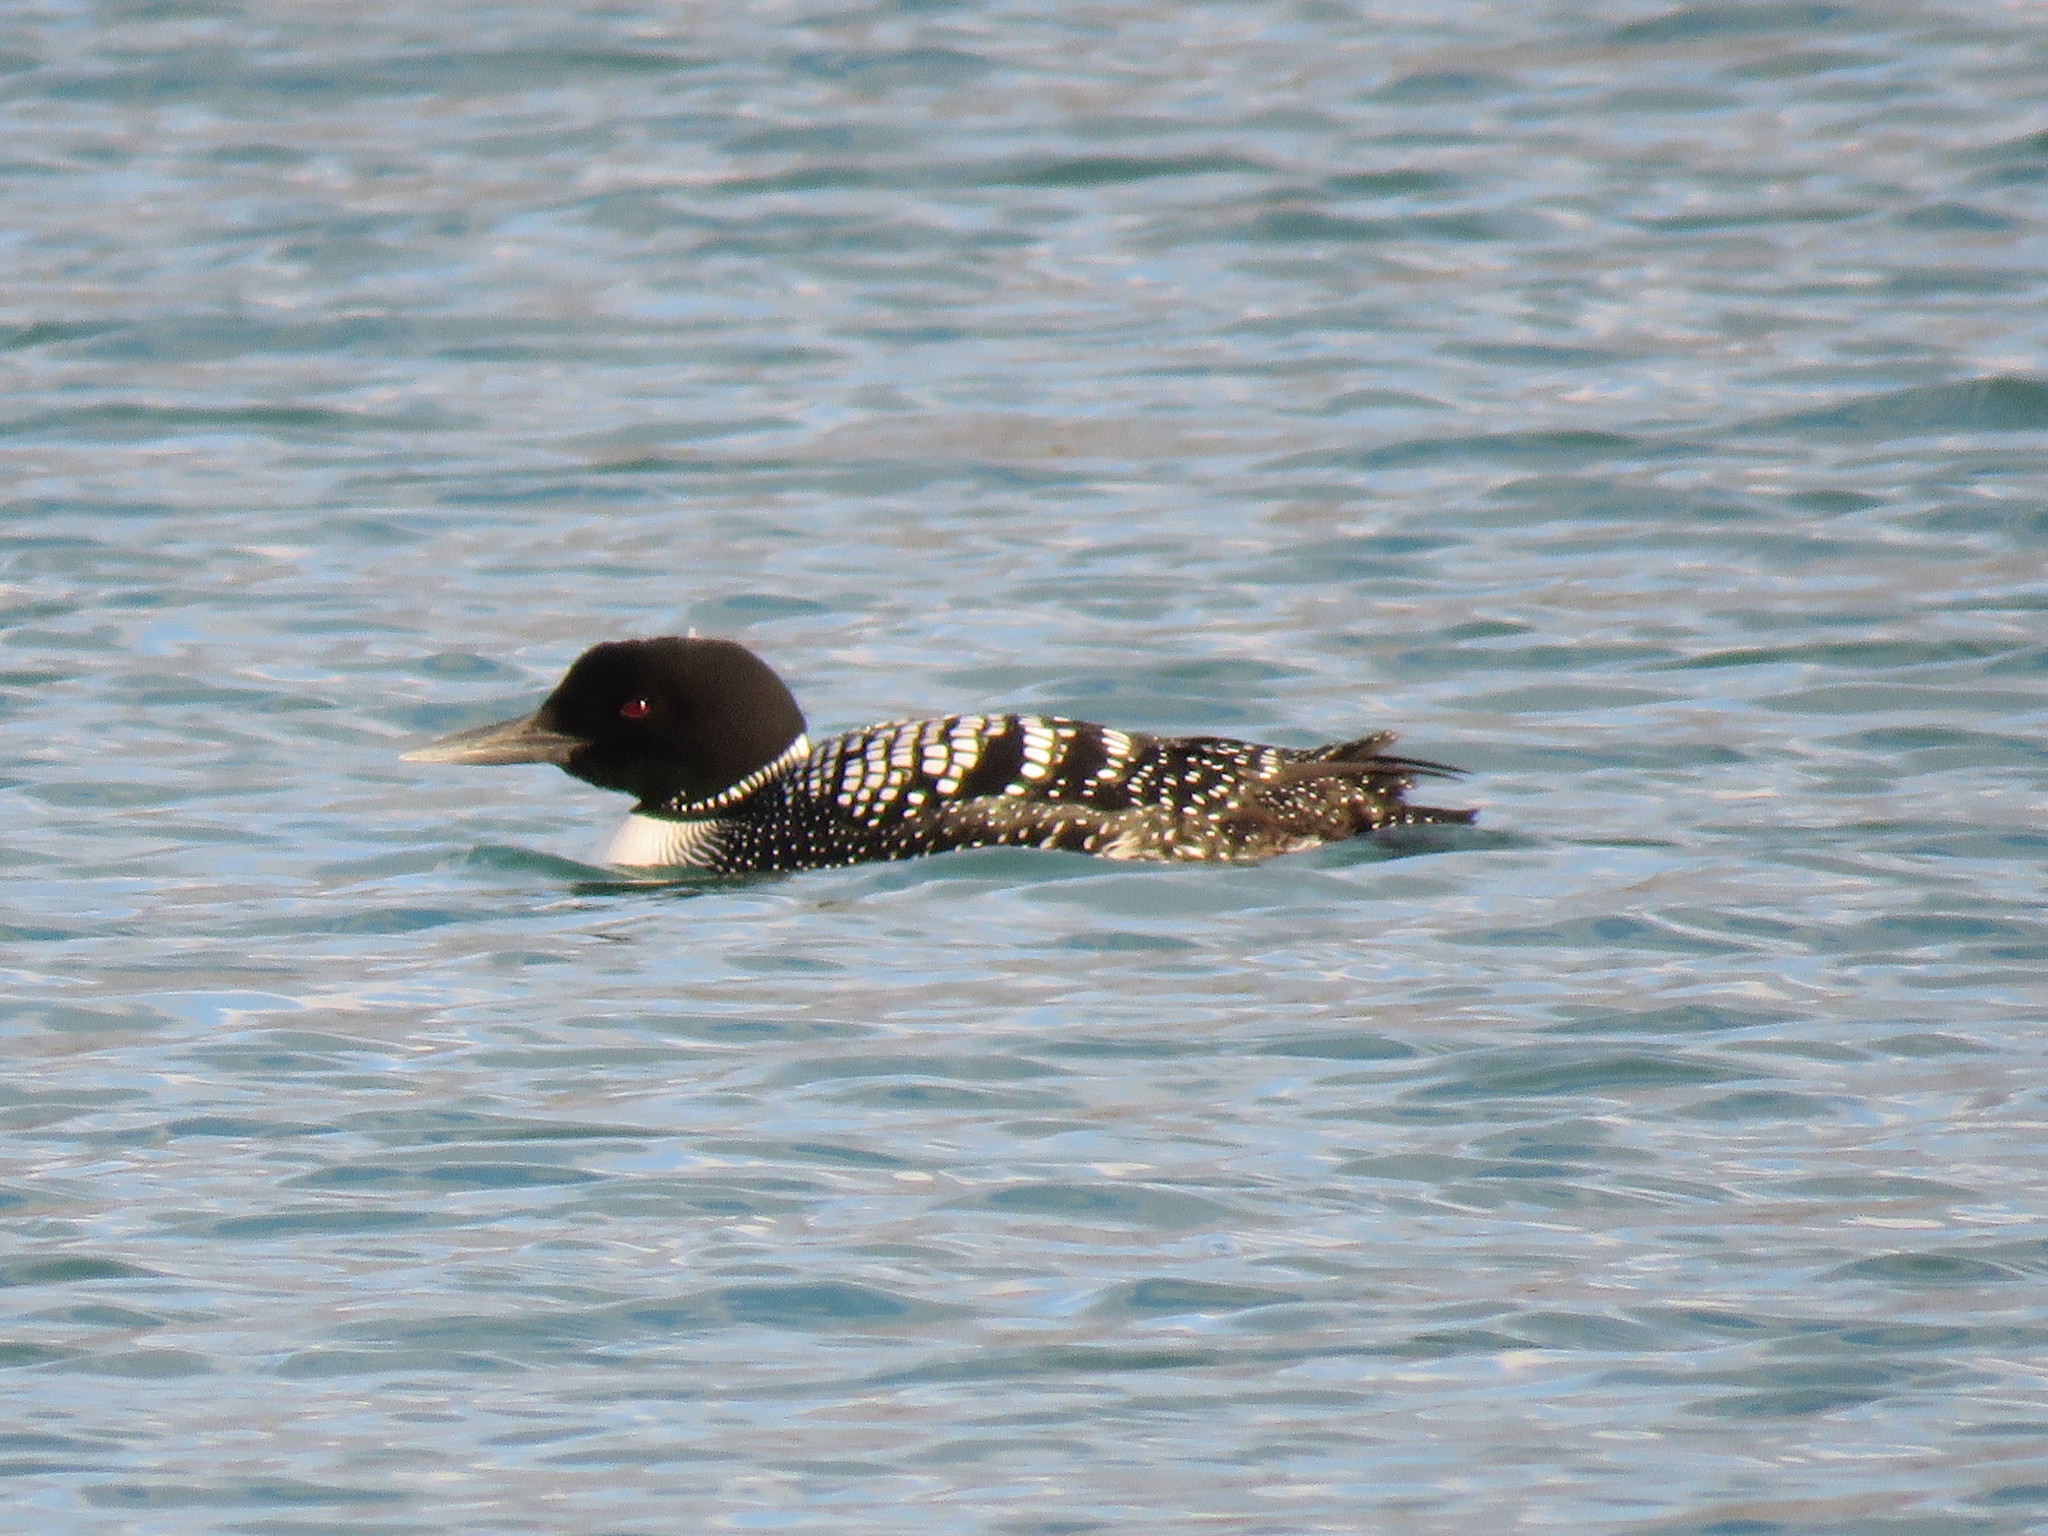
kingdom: Animalia
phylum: Chordata
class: Aves
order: Gaviiformes
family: Gaviidae
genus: Gavia
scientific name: Gavia immer
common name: Common loon
